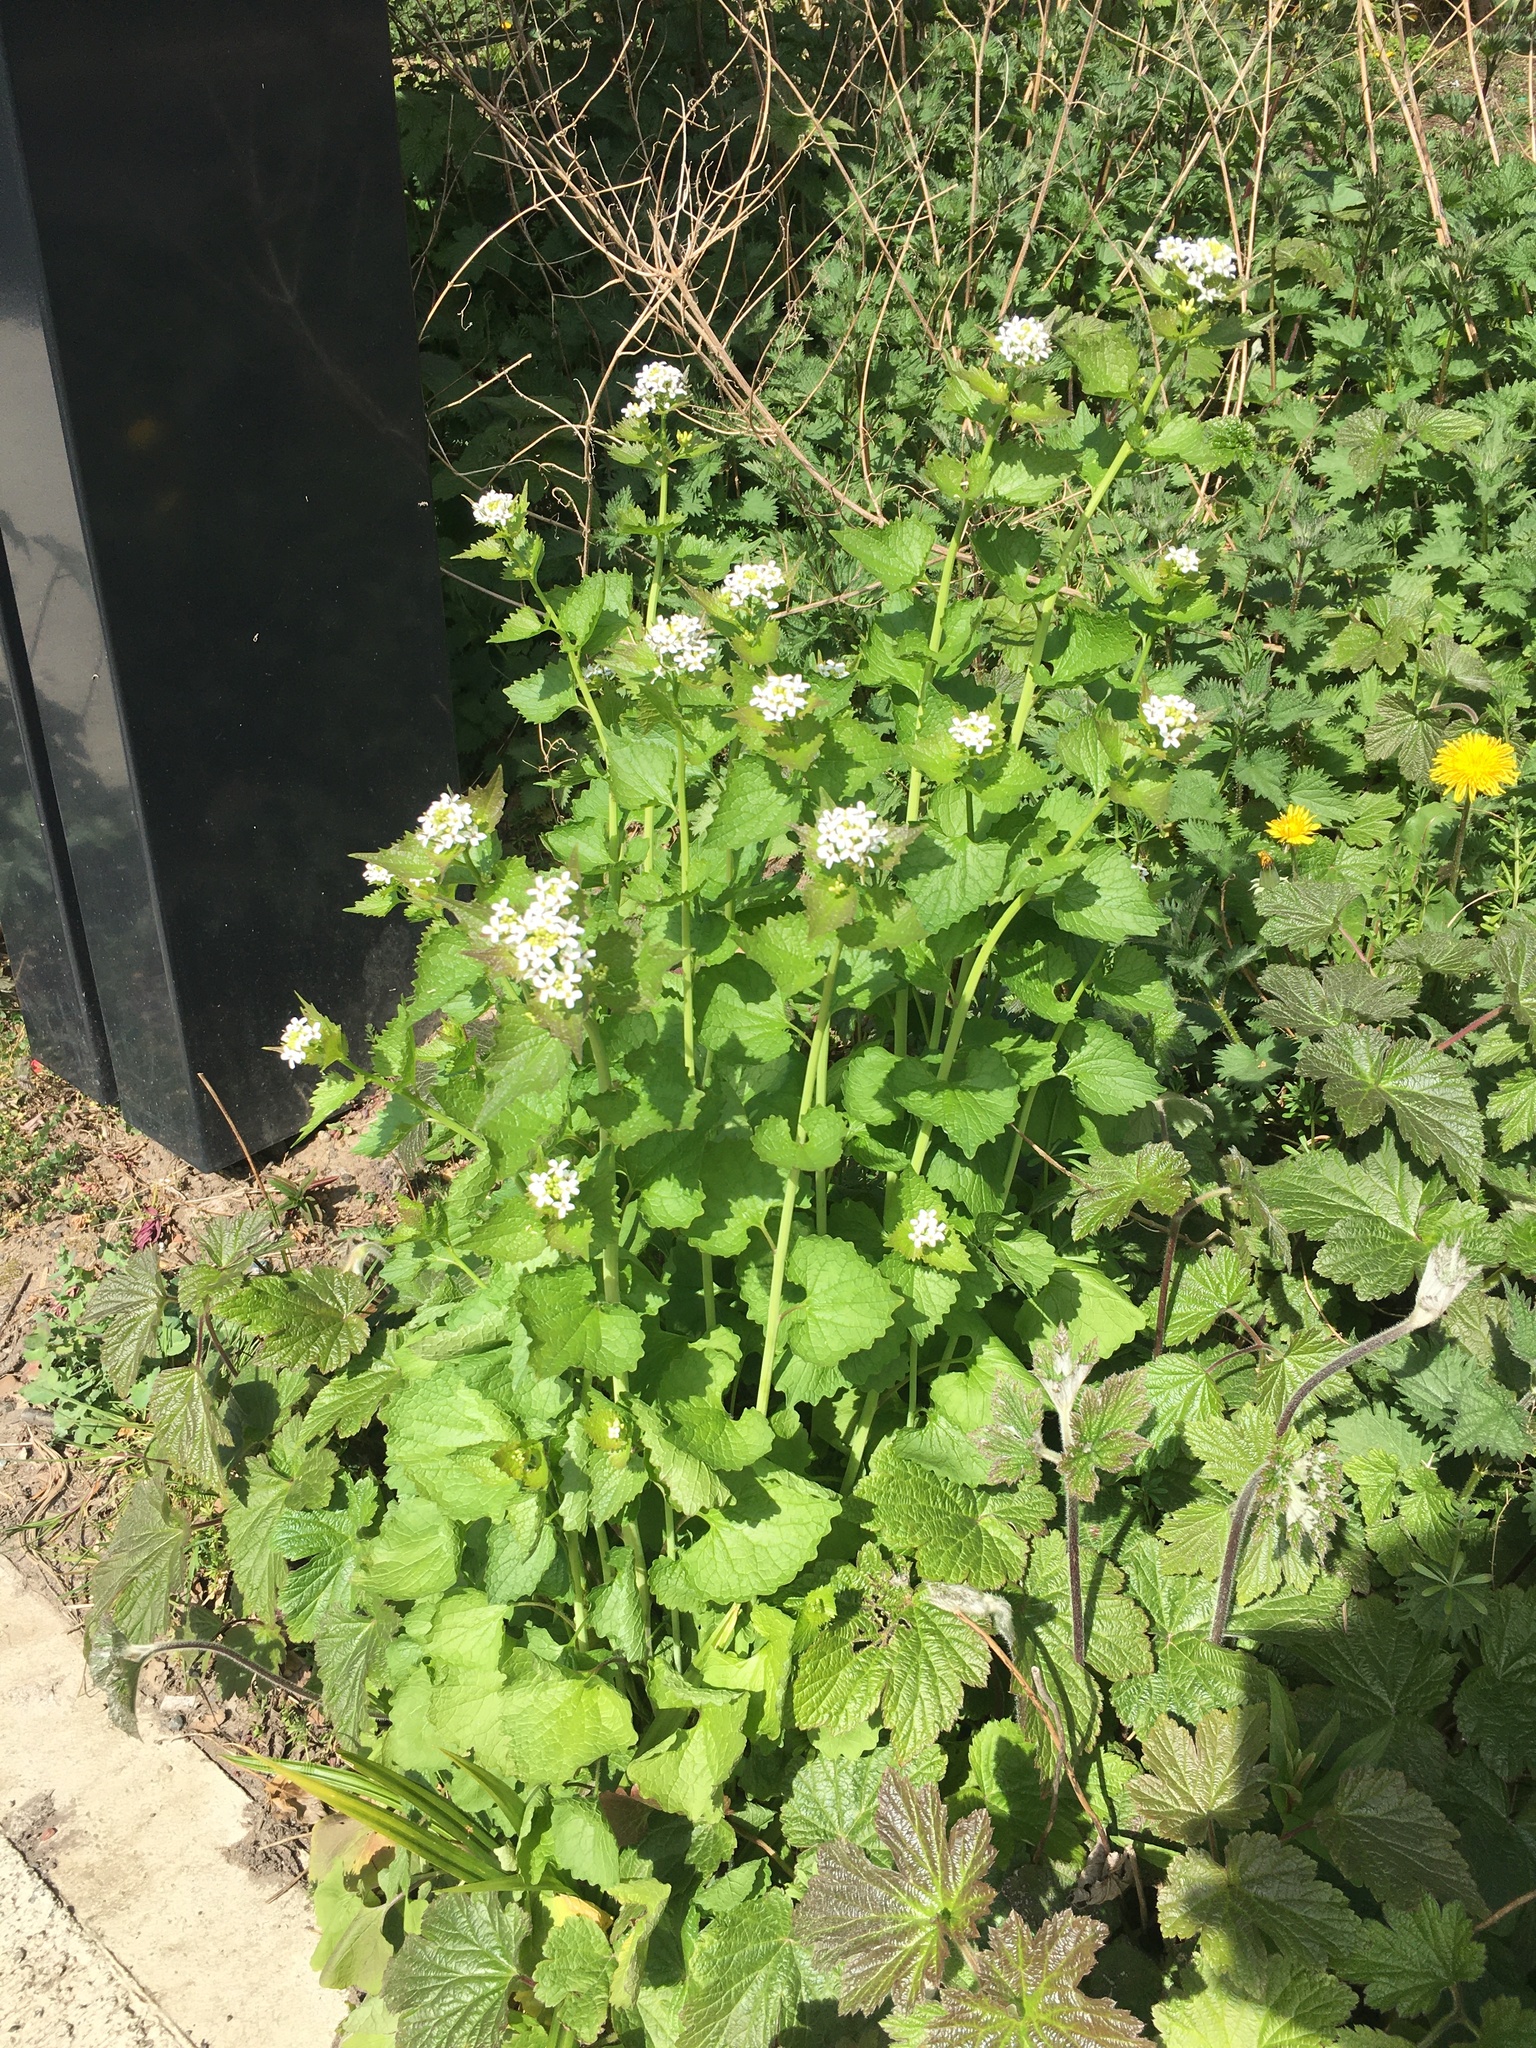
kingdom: Plantae
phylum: Tracheophyta
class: Magnoliopsida
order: Brassicales
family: Brassicaceae
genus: Alliaria
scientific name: Alliaria petiolata
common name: Garlic mustard
